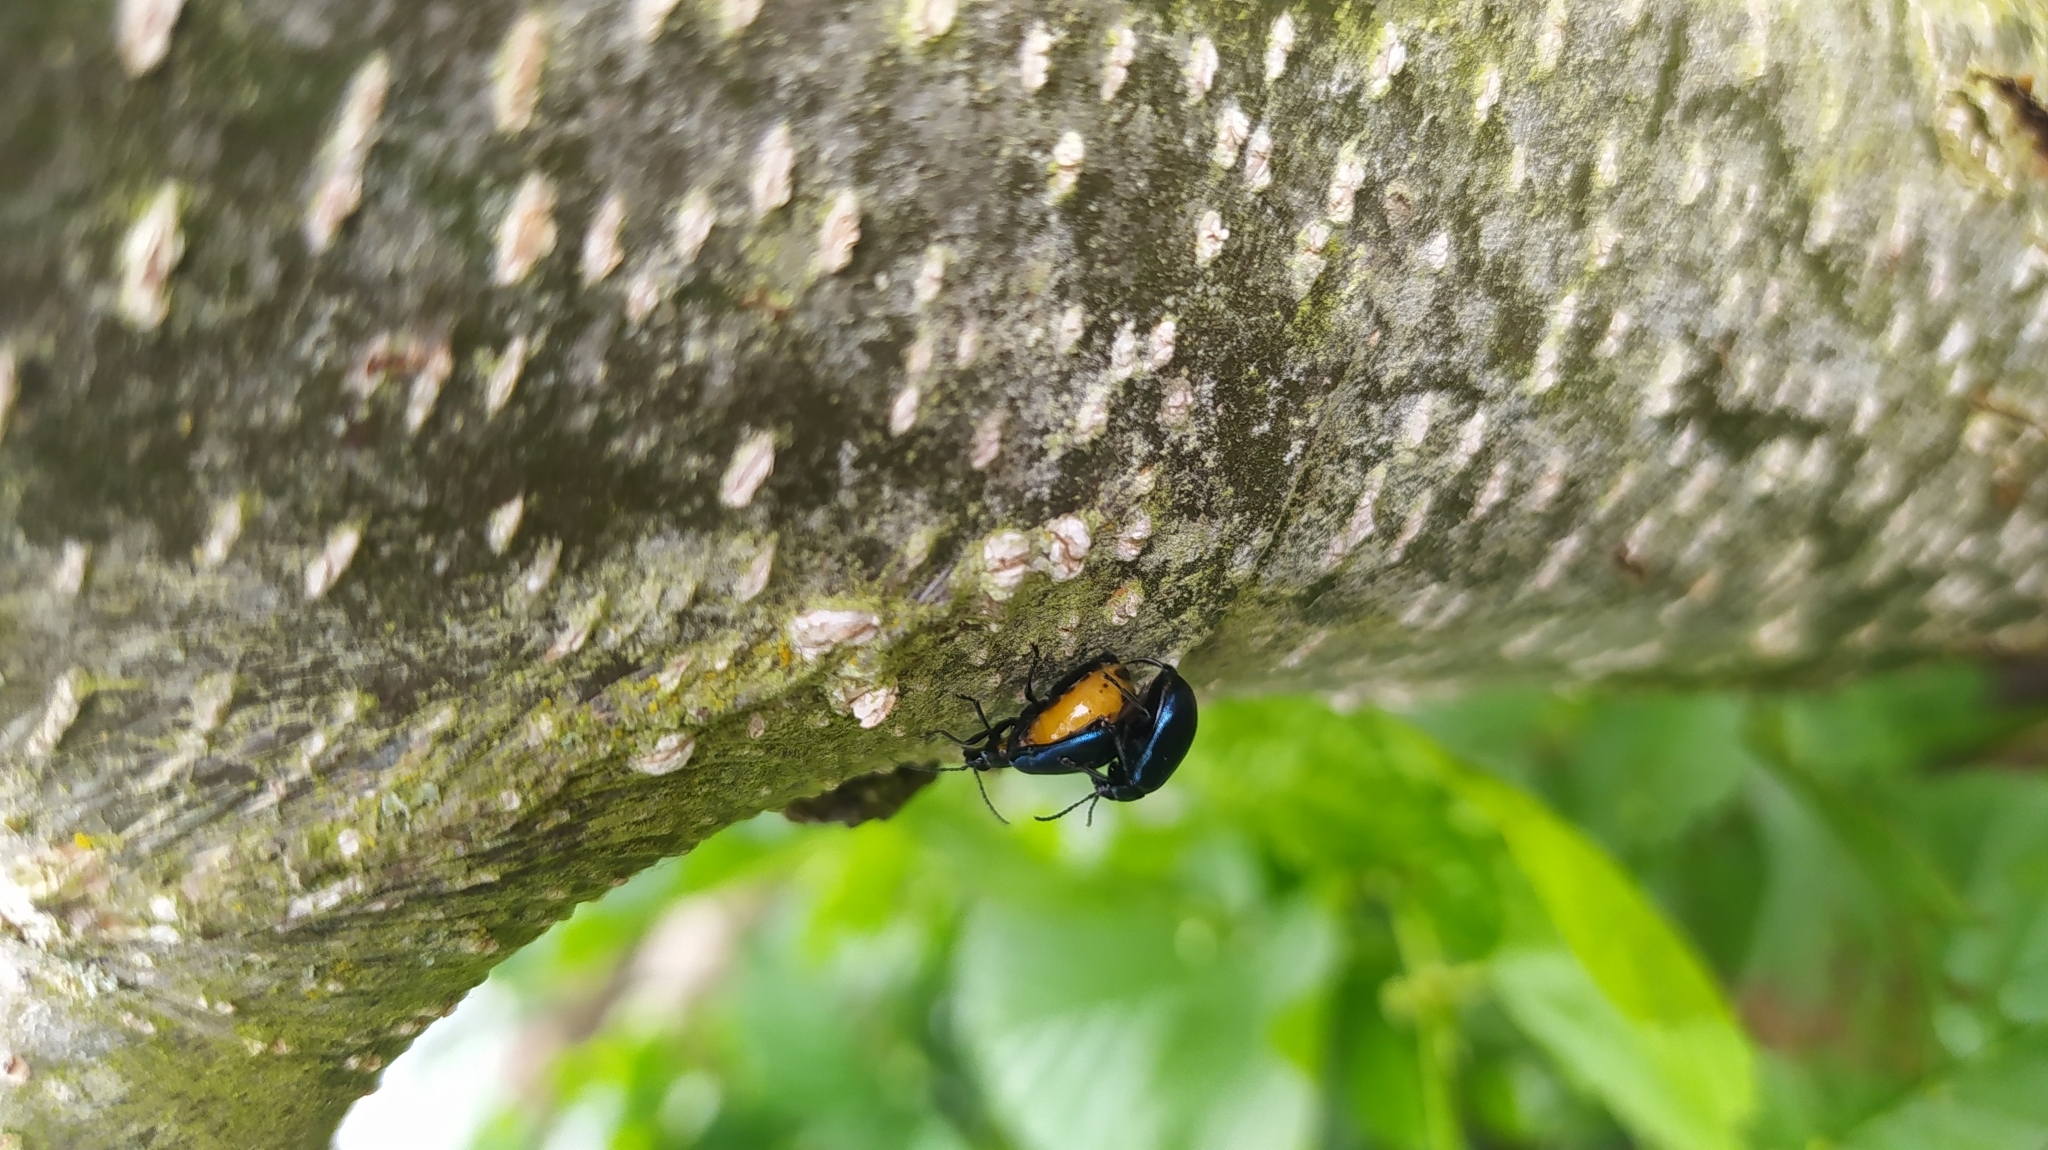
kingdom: Animalia
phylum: Arthropoda
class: Insecta
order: Coleoptera
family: Chrysomelidae
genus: Agelastica
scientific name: Agelastica alni
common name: Alder leaf beetle
